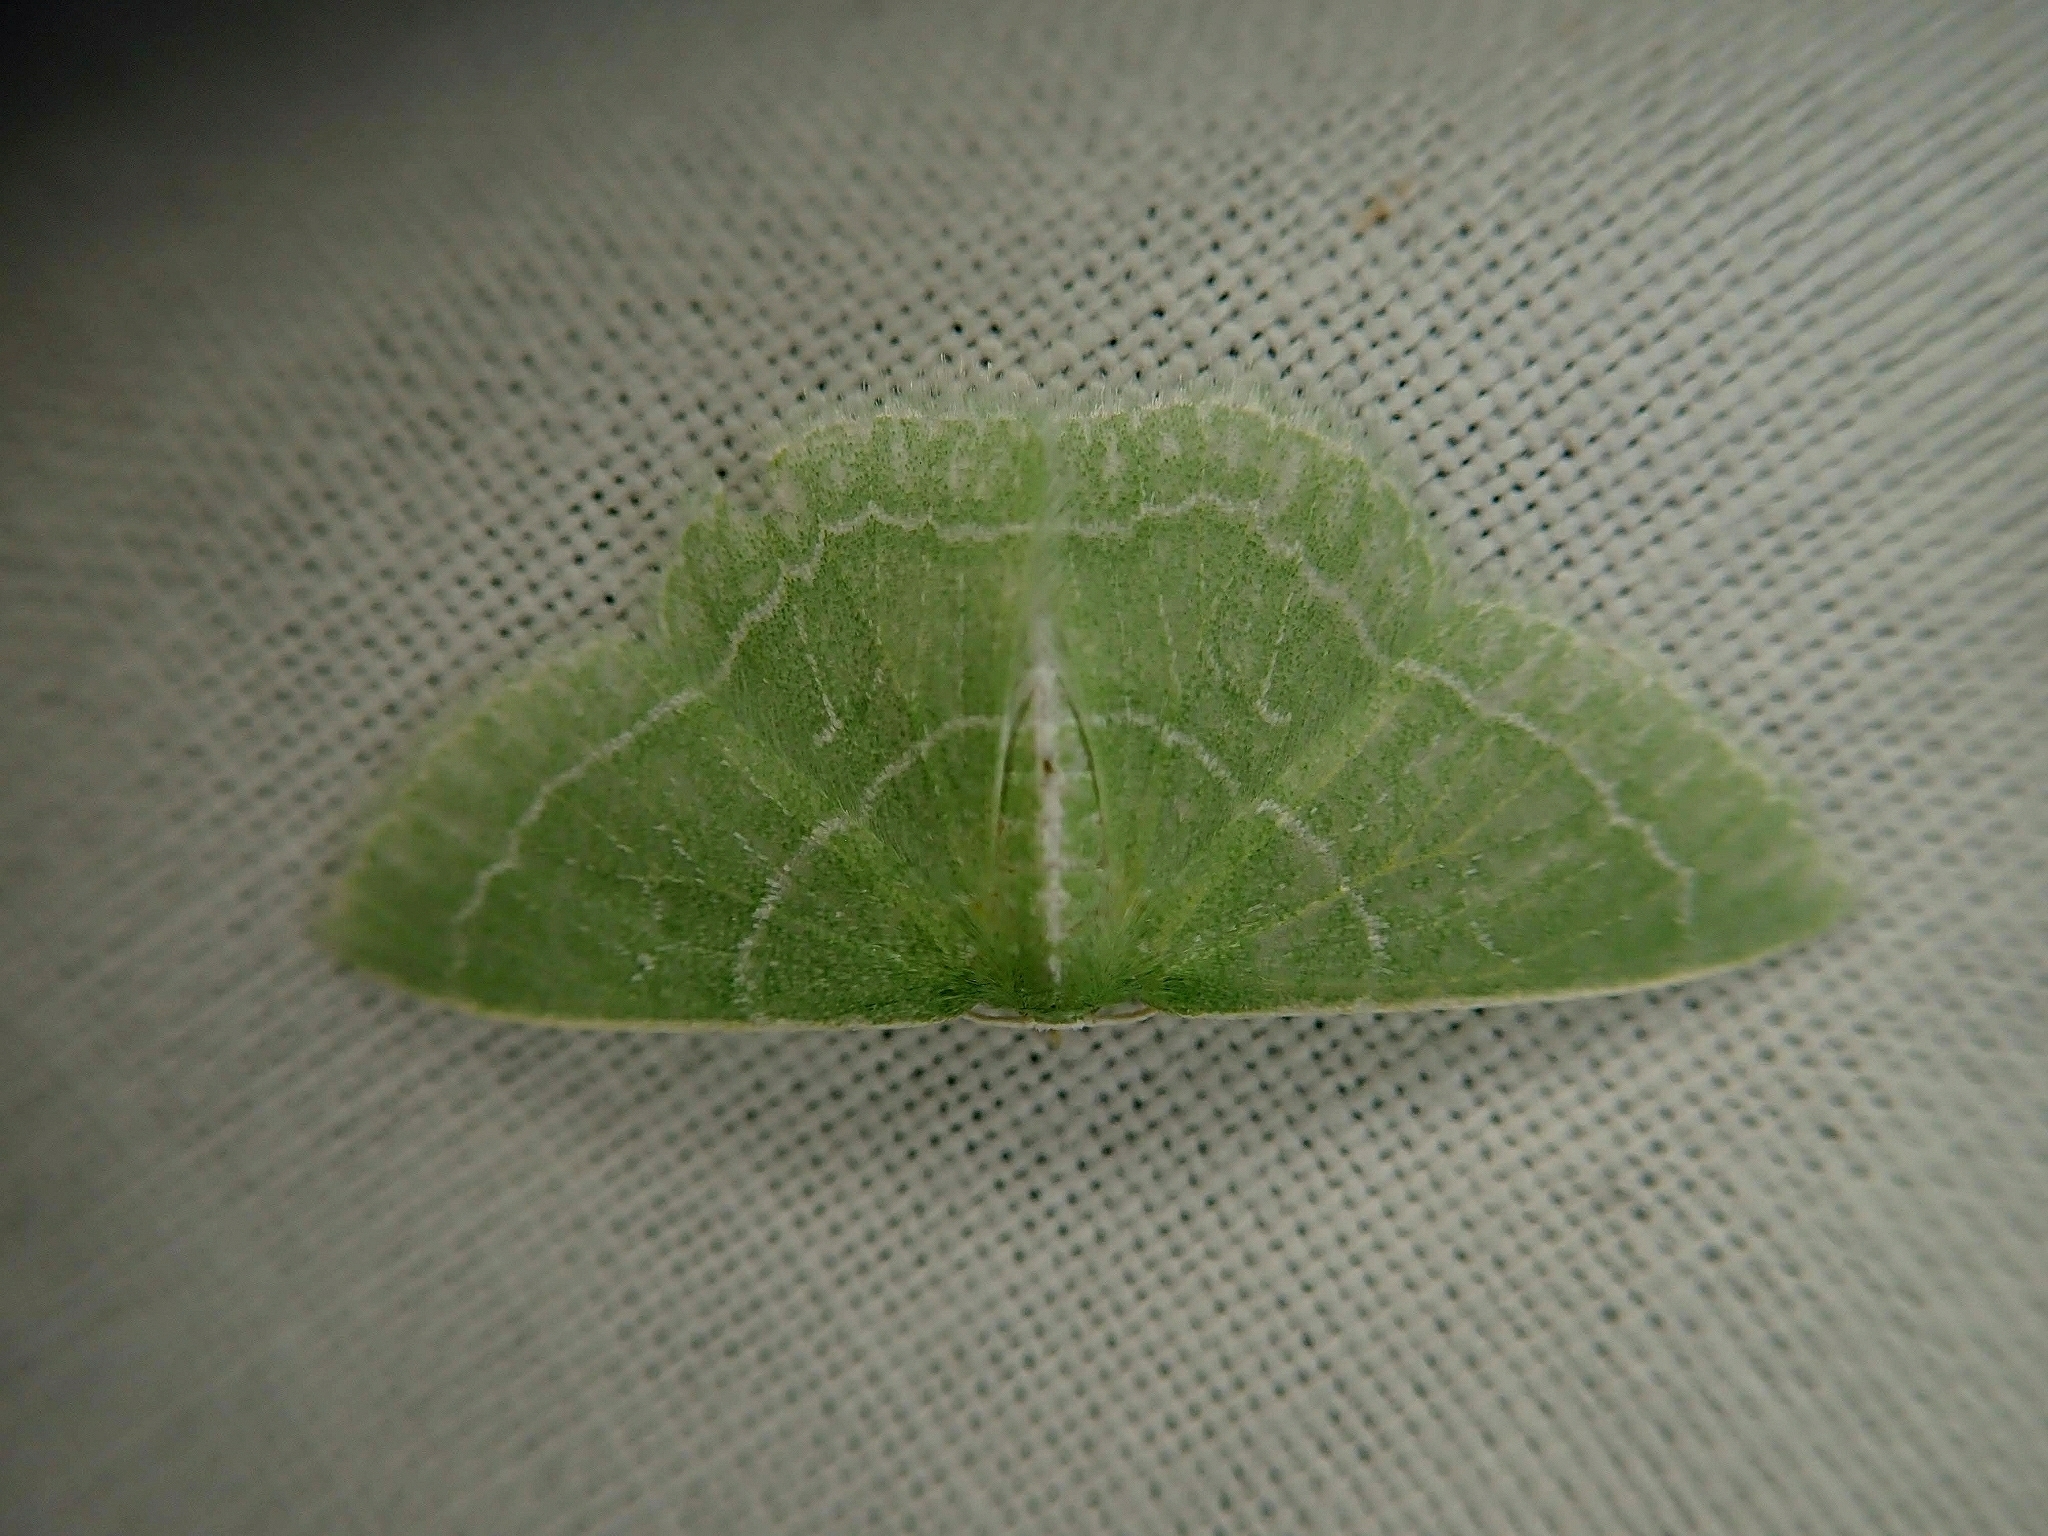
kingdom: Animalia
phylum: Arthropoda
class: Insecta
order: Lepidoptera
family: Geometridae
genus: Synchlora
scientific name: Synchlora aerata
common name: Wavy-lined emerald
